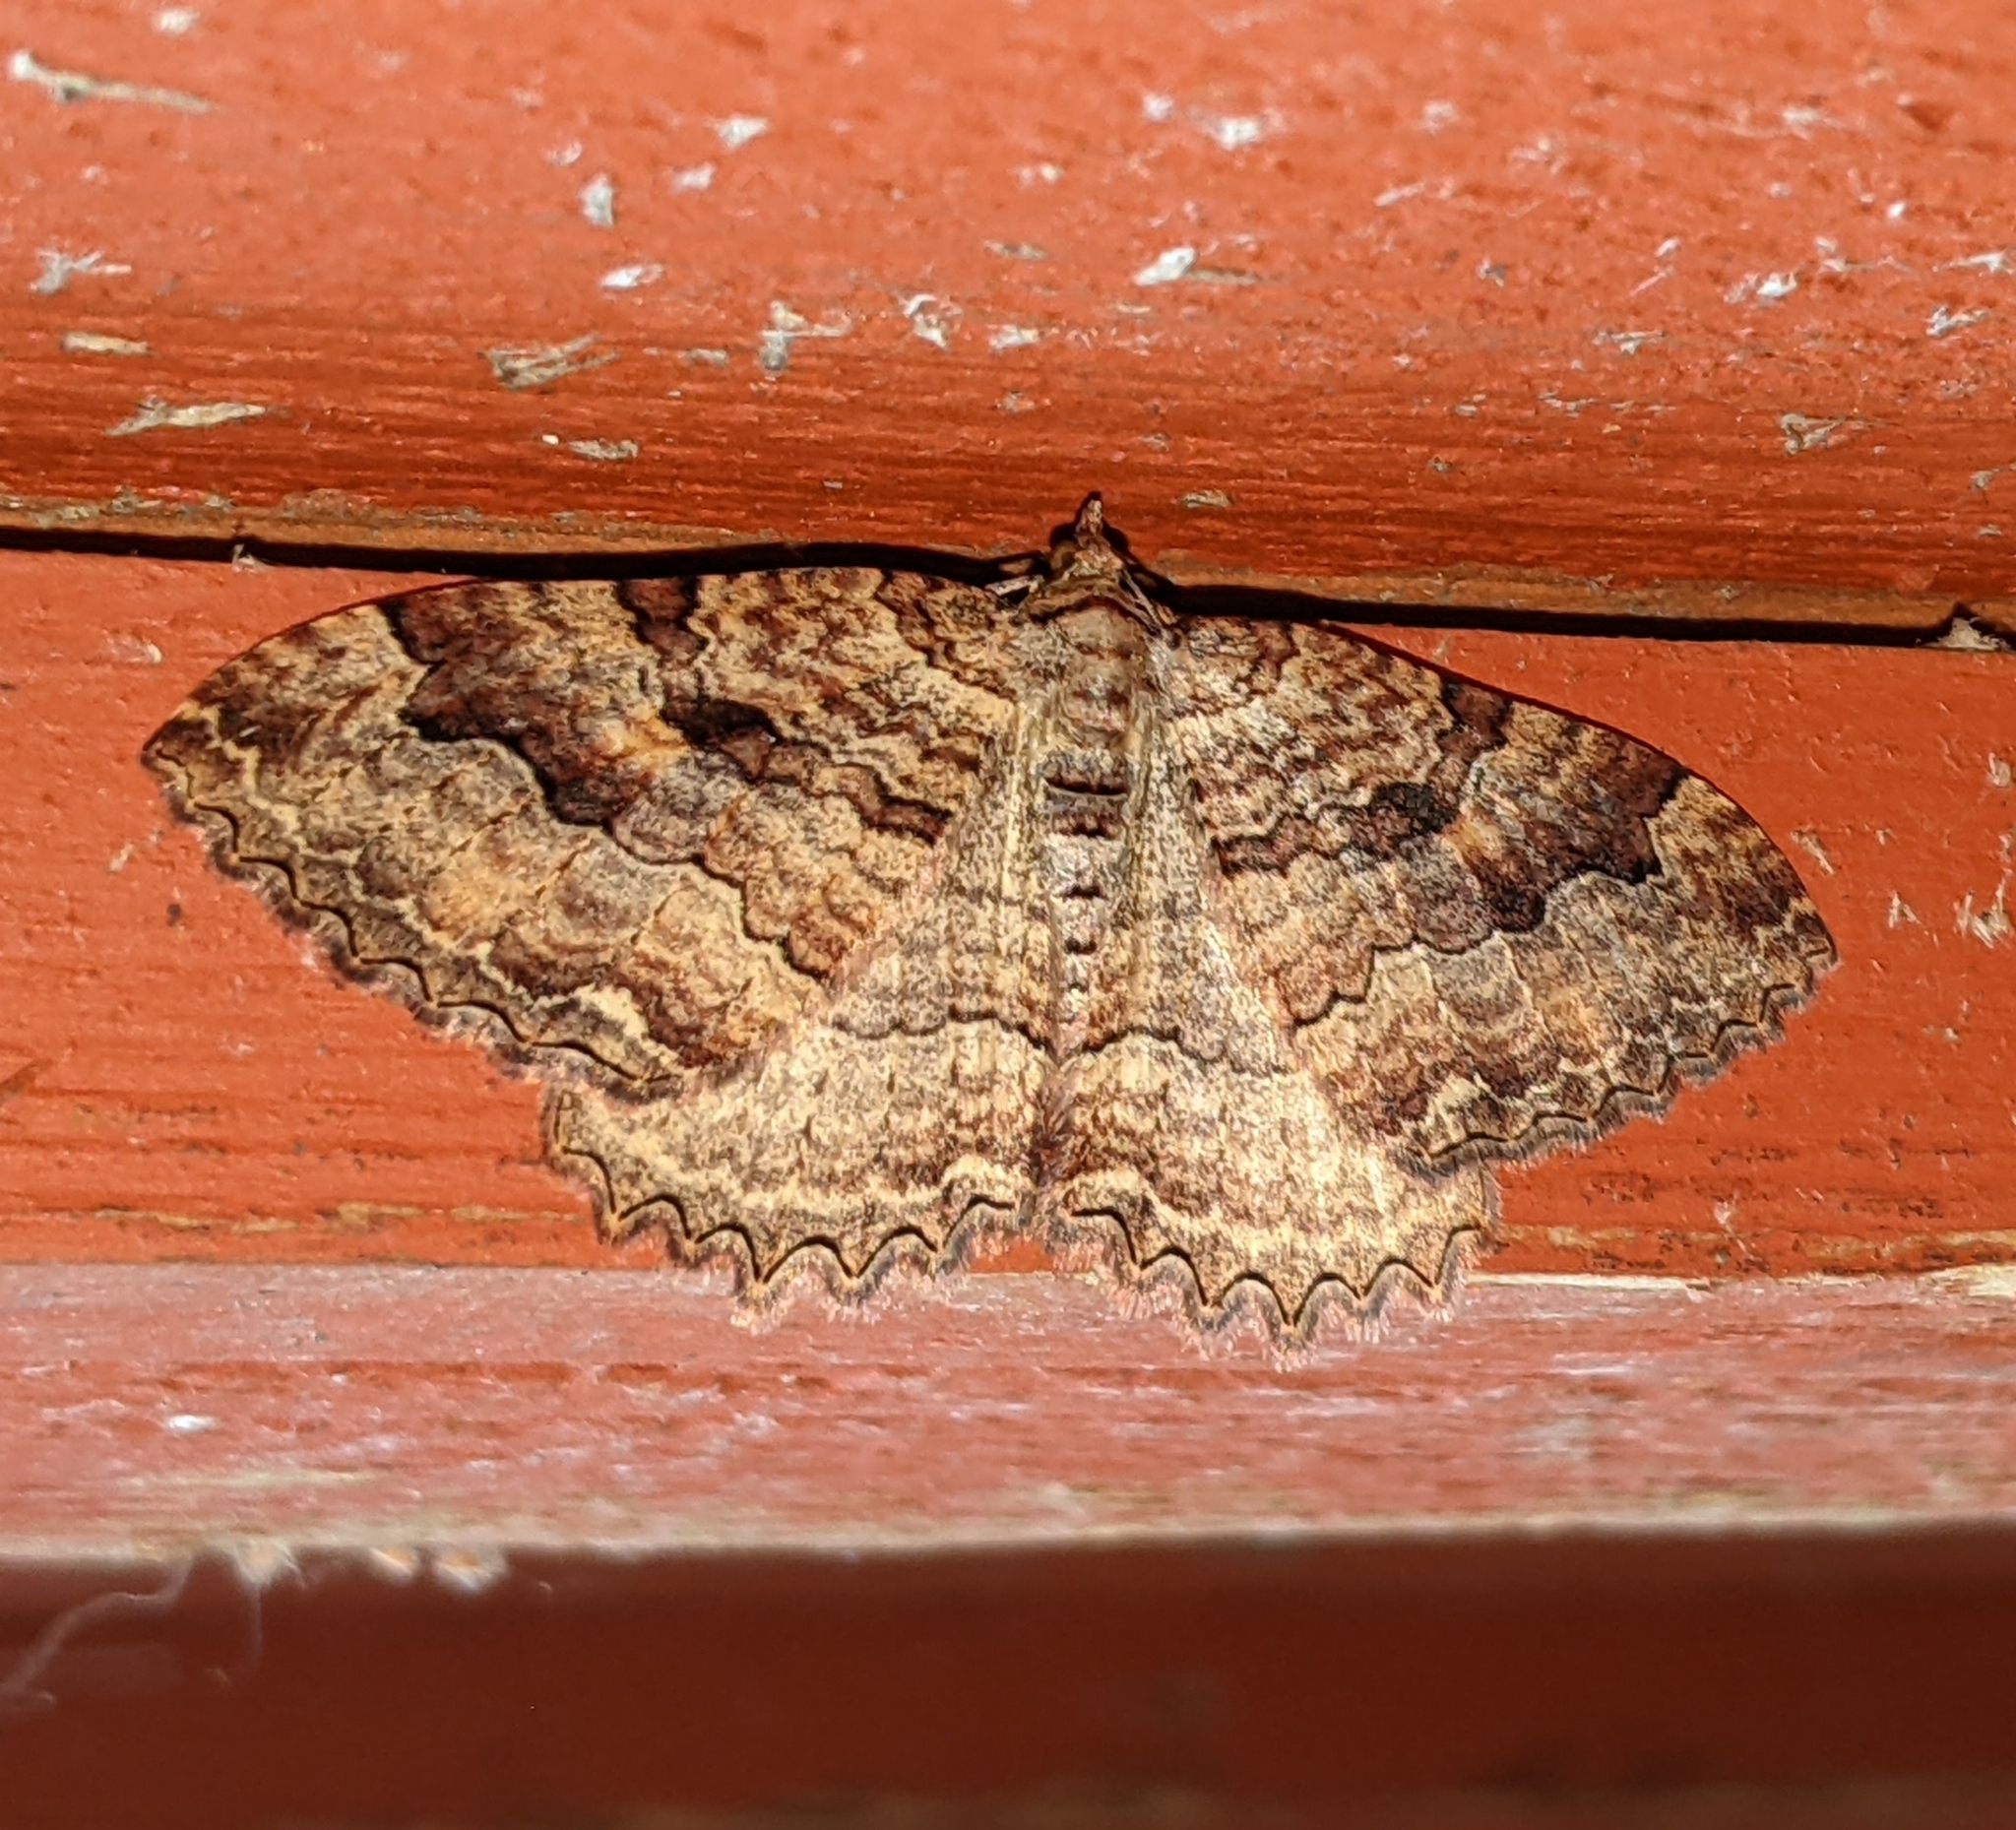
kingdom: Animalia
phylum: Arthropoda
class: Insecta
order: Lepidoptera
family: Geometridae
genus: Triphosa
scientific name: Triphosa haesitata
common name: Tissue moth
